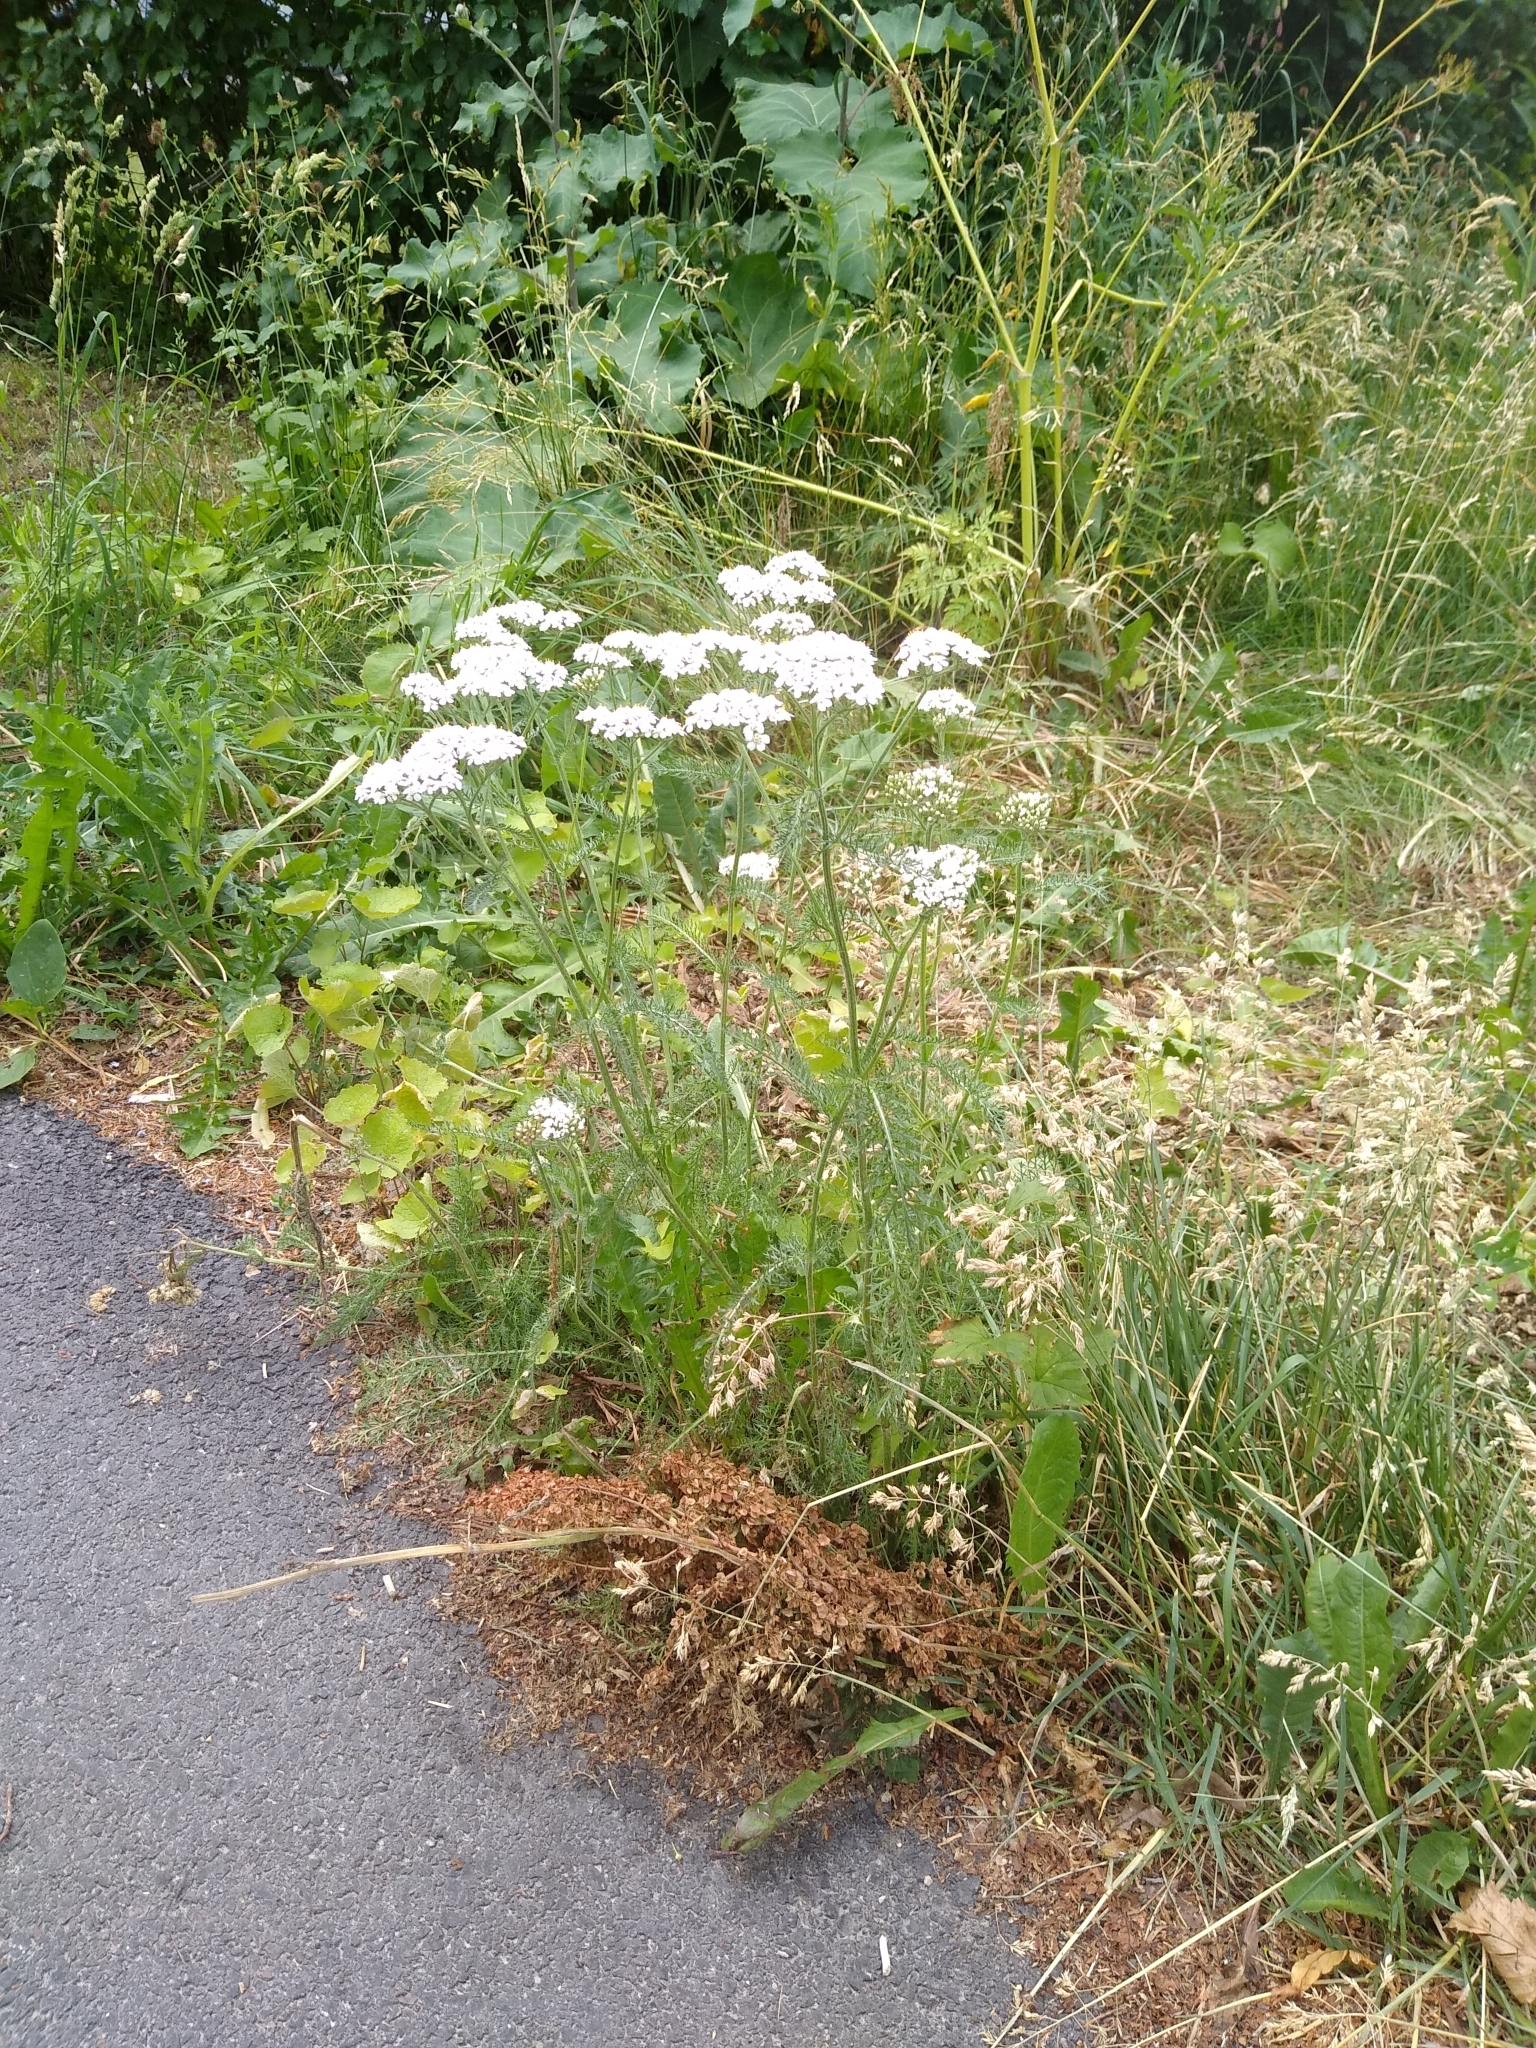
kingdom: Plantae
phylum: Tracheophyta
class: Magnoliopsida
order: Asterales
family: Asteraceae
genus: Achillea
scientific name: Achillea millefolium
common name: Yarrow
